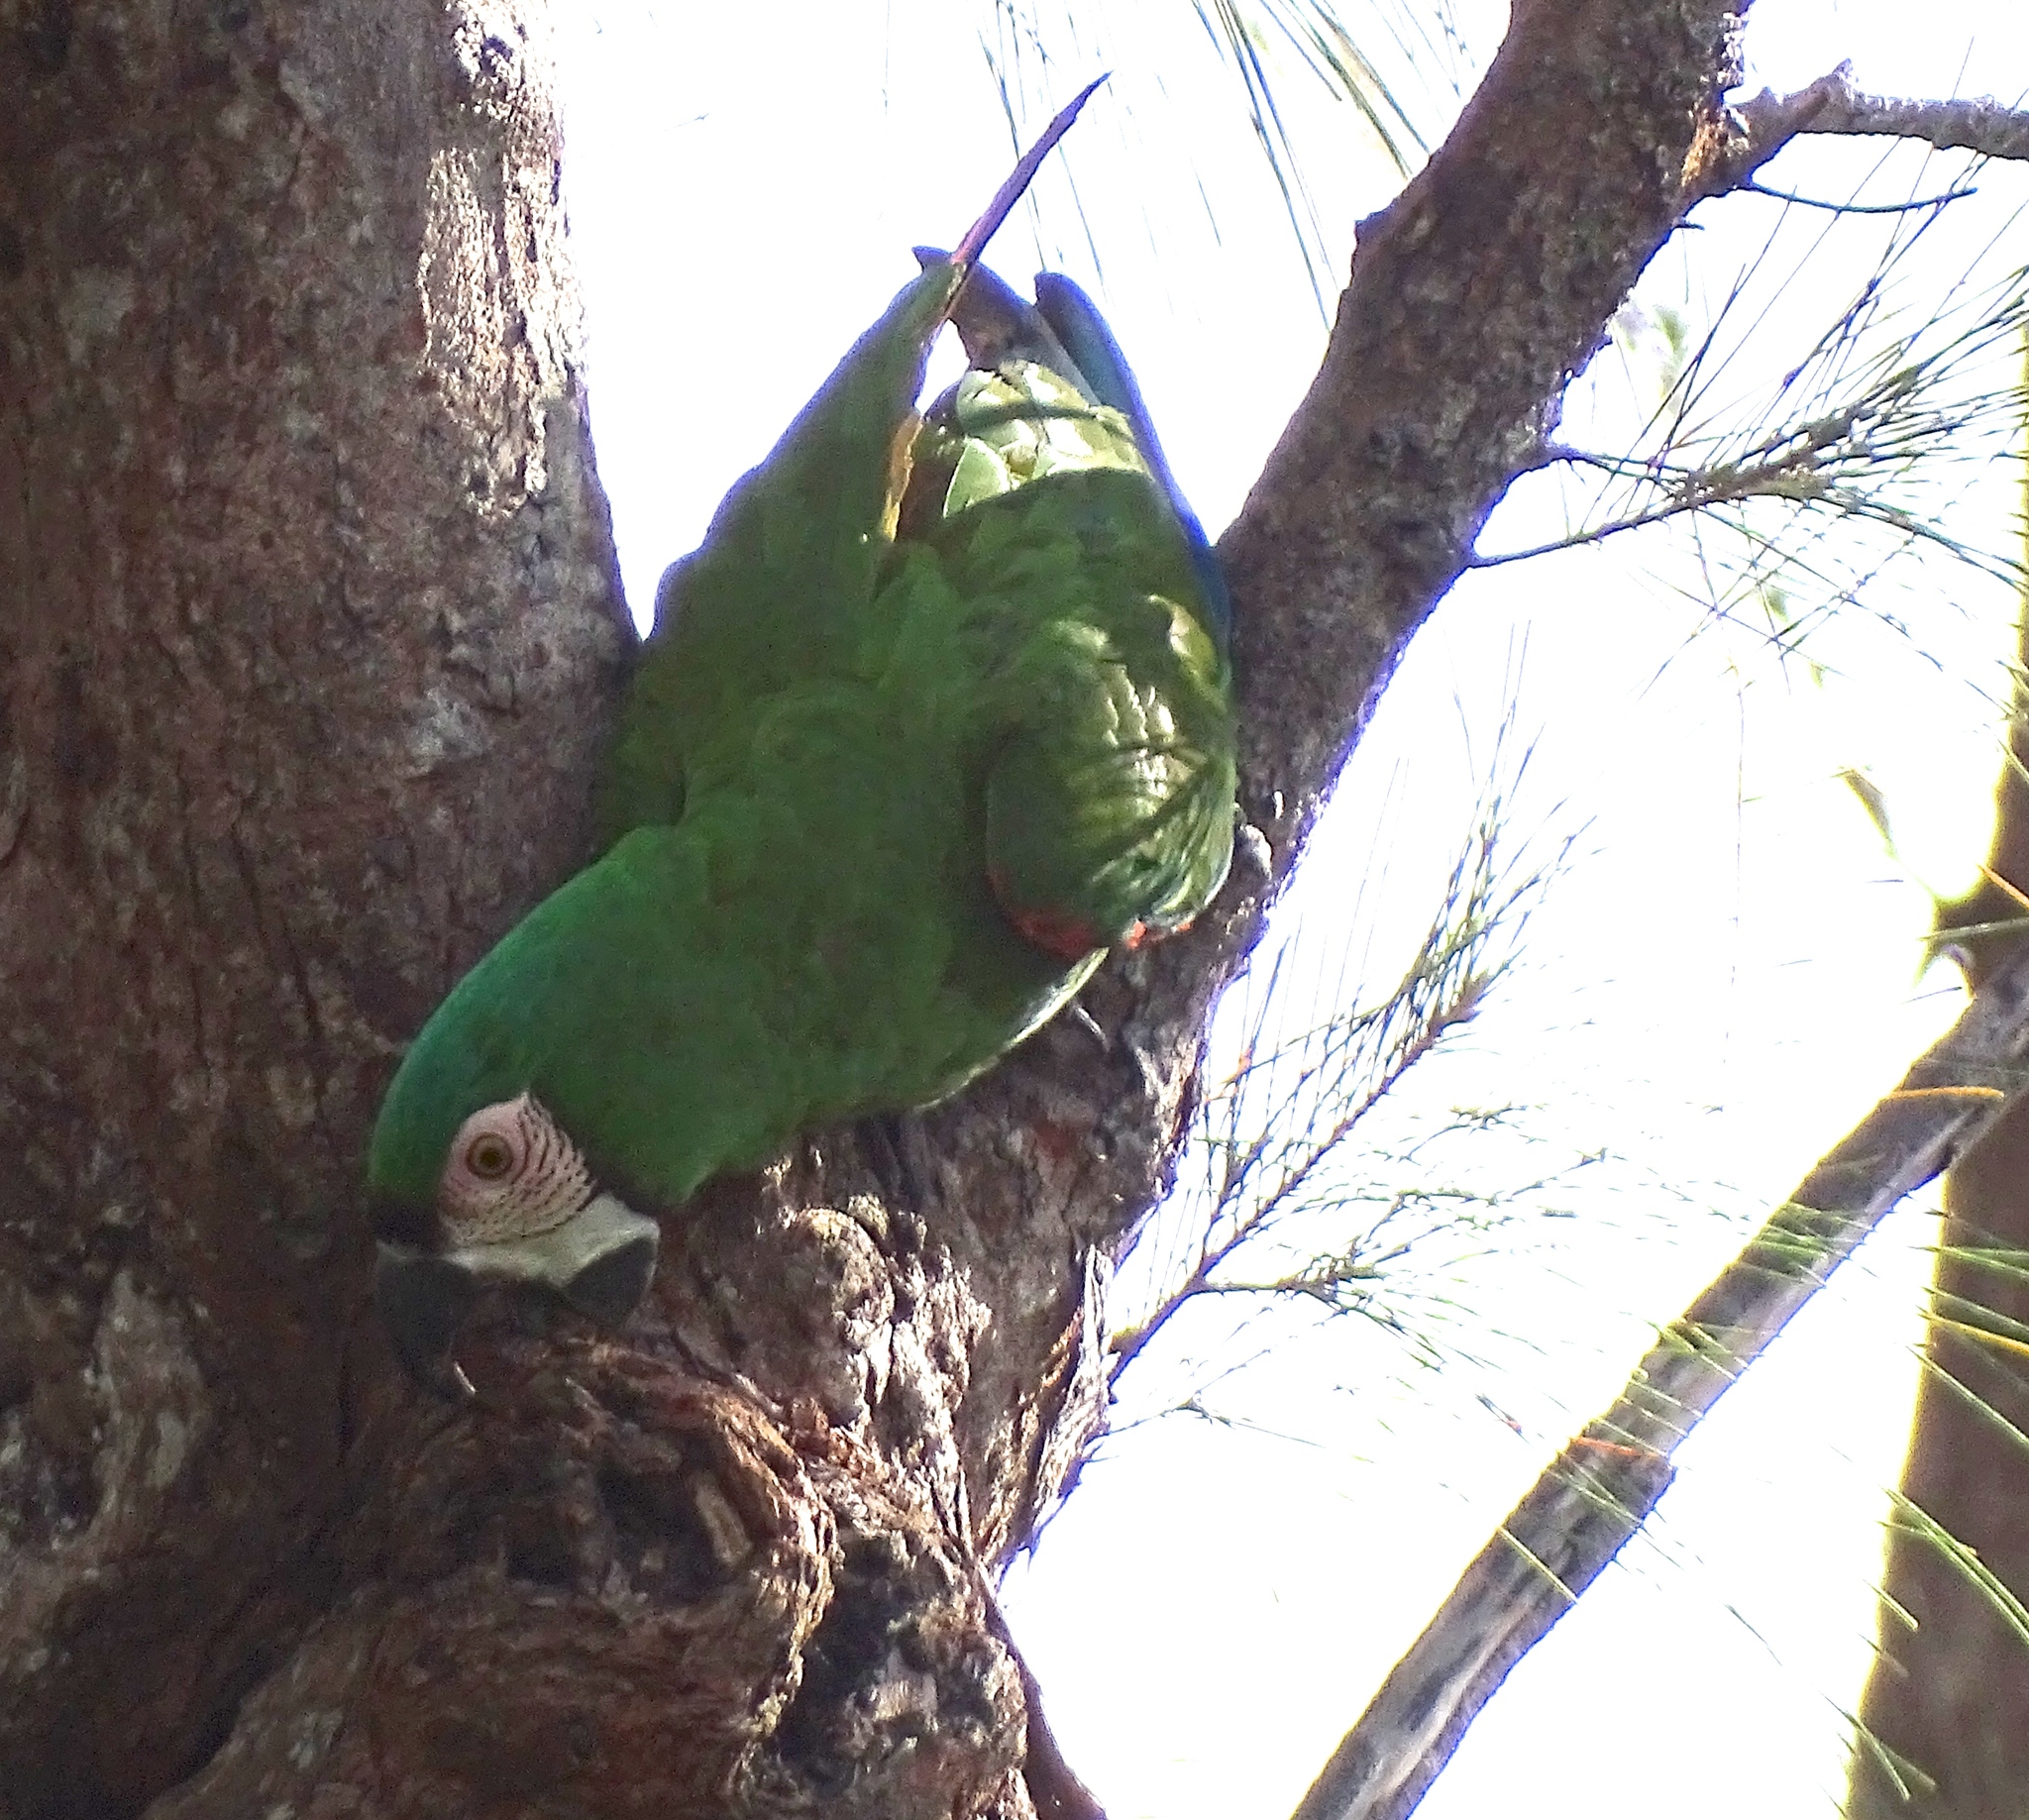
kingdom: Animalia
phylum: Chordata
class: Aves
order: Psittaciformes
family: Psittacidae
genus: Ara
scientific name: Ara severus
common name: Chestnut-fronted macaw
